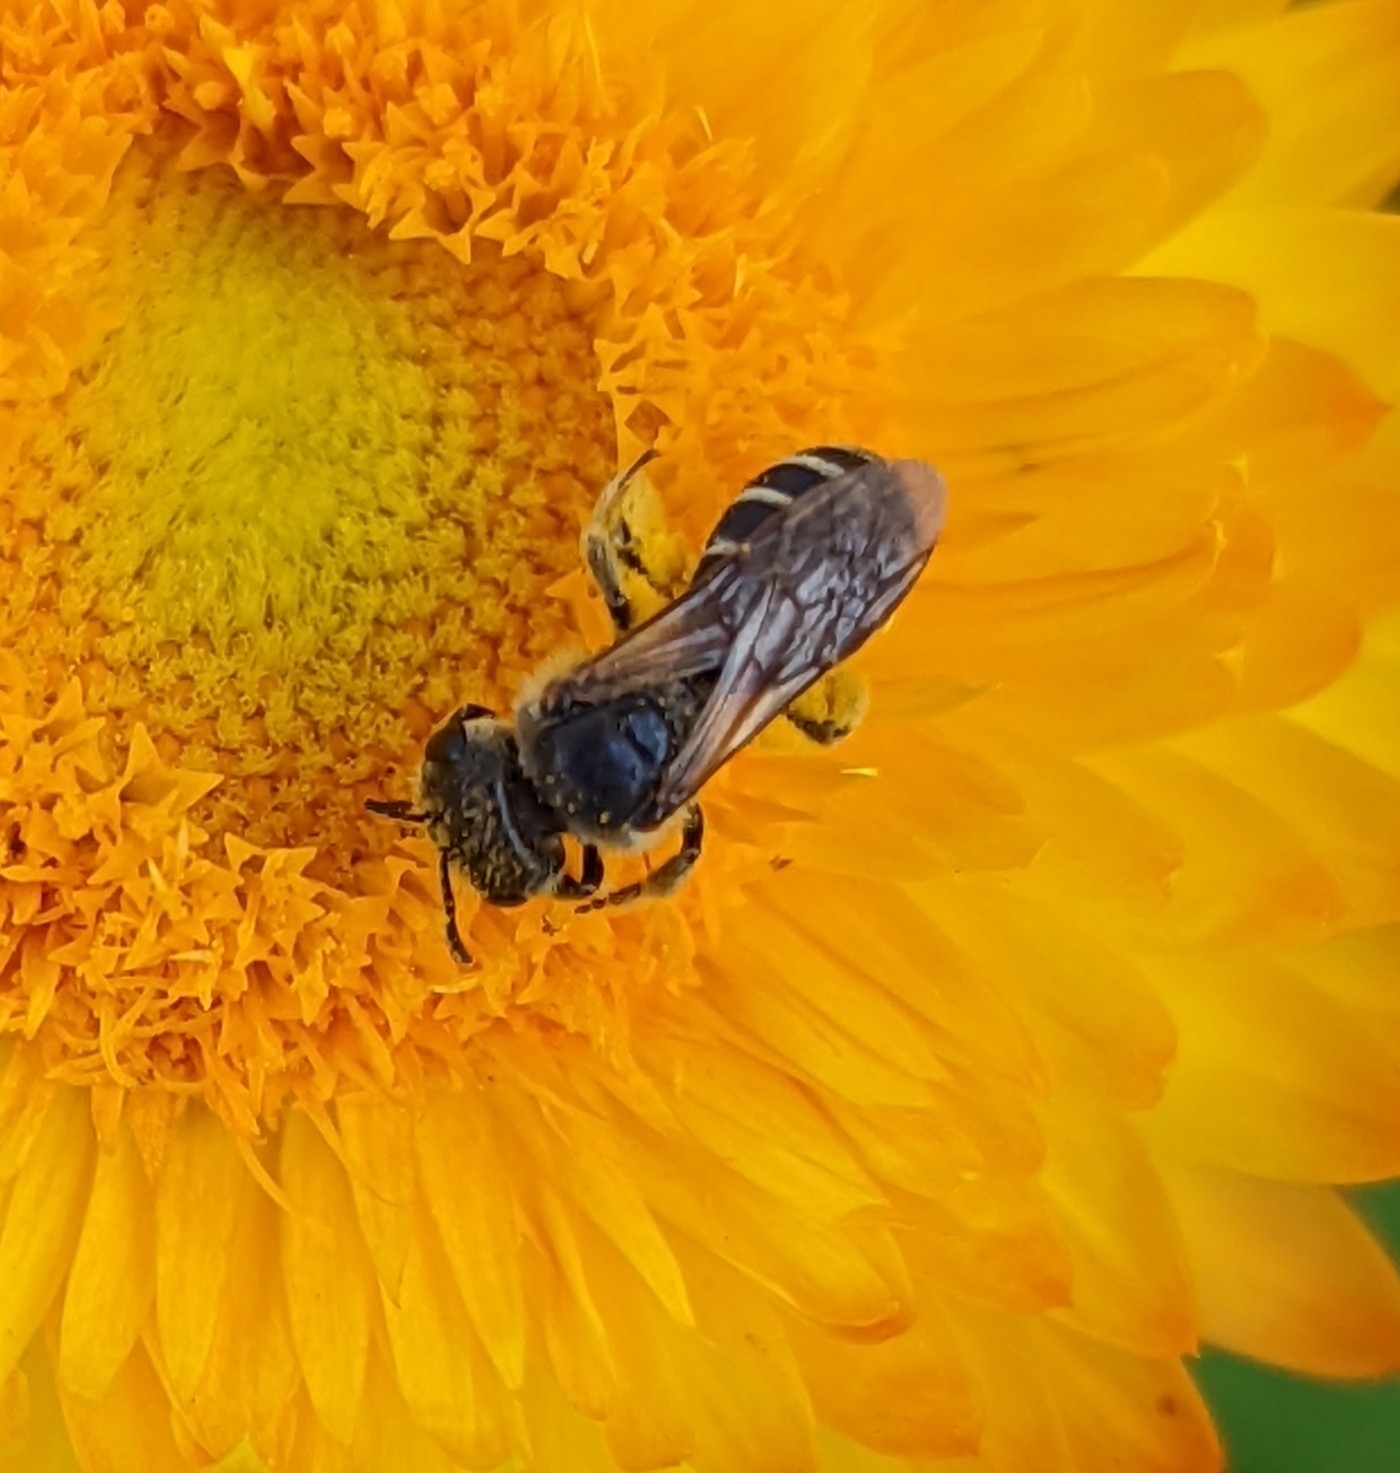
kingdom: Animalia
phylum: Arthropoda
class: Insecta
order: Hymenoptera
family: Halictidae
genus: Halictus
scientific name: Halictus ligatus
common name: Ligated furrow bee
